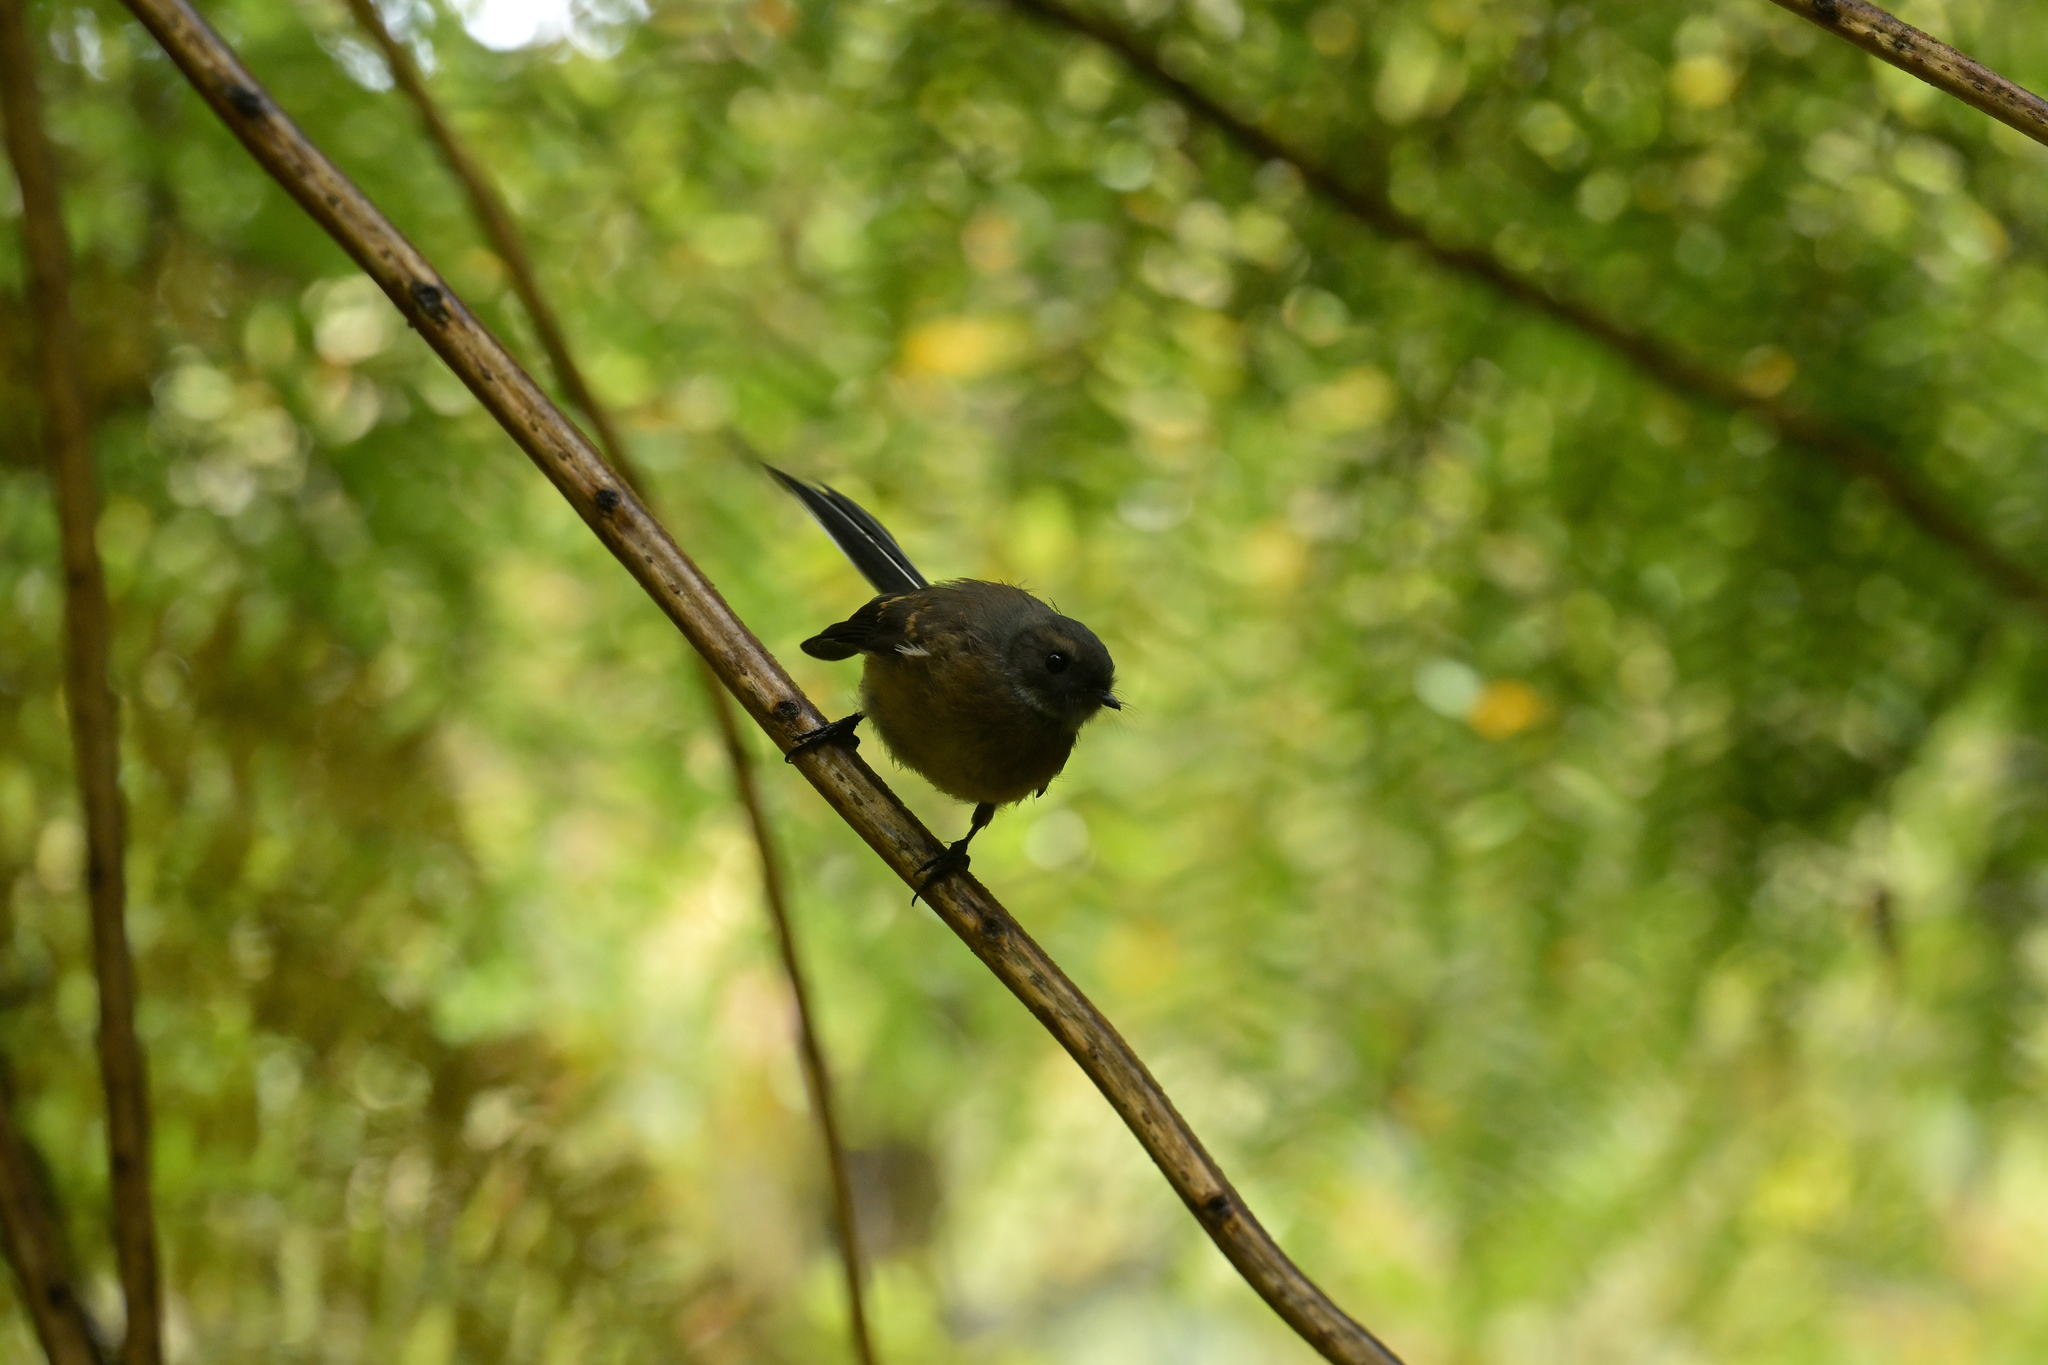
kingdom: Animalia
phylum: Chordata
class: Aves
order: Passeriformes
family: Rhipiduridae
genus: Rhipidura
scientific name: Rhipidura fuliginosa
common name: New zealand fantail
